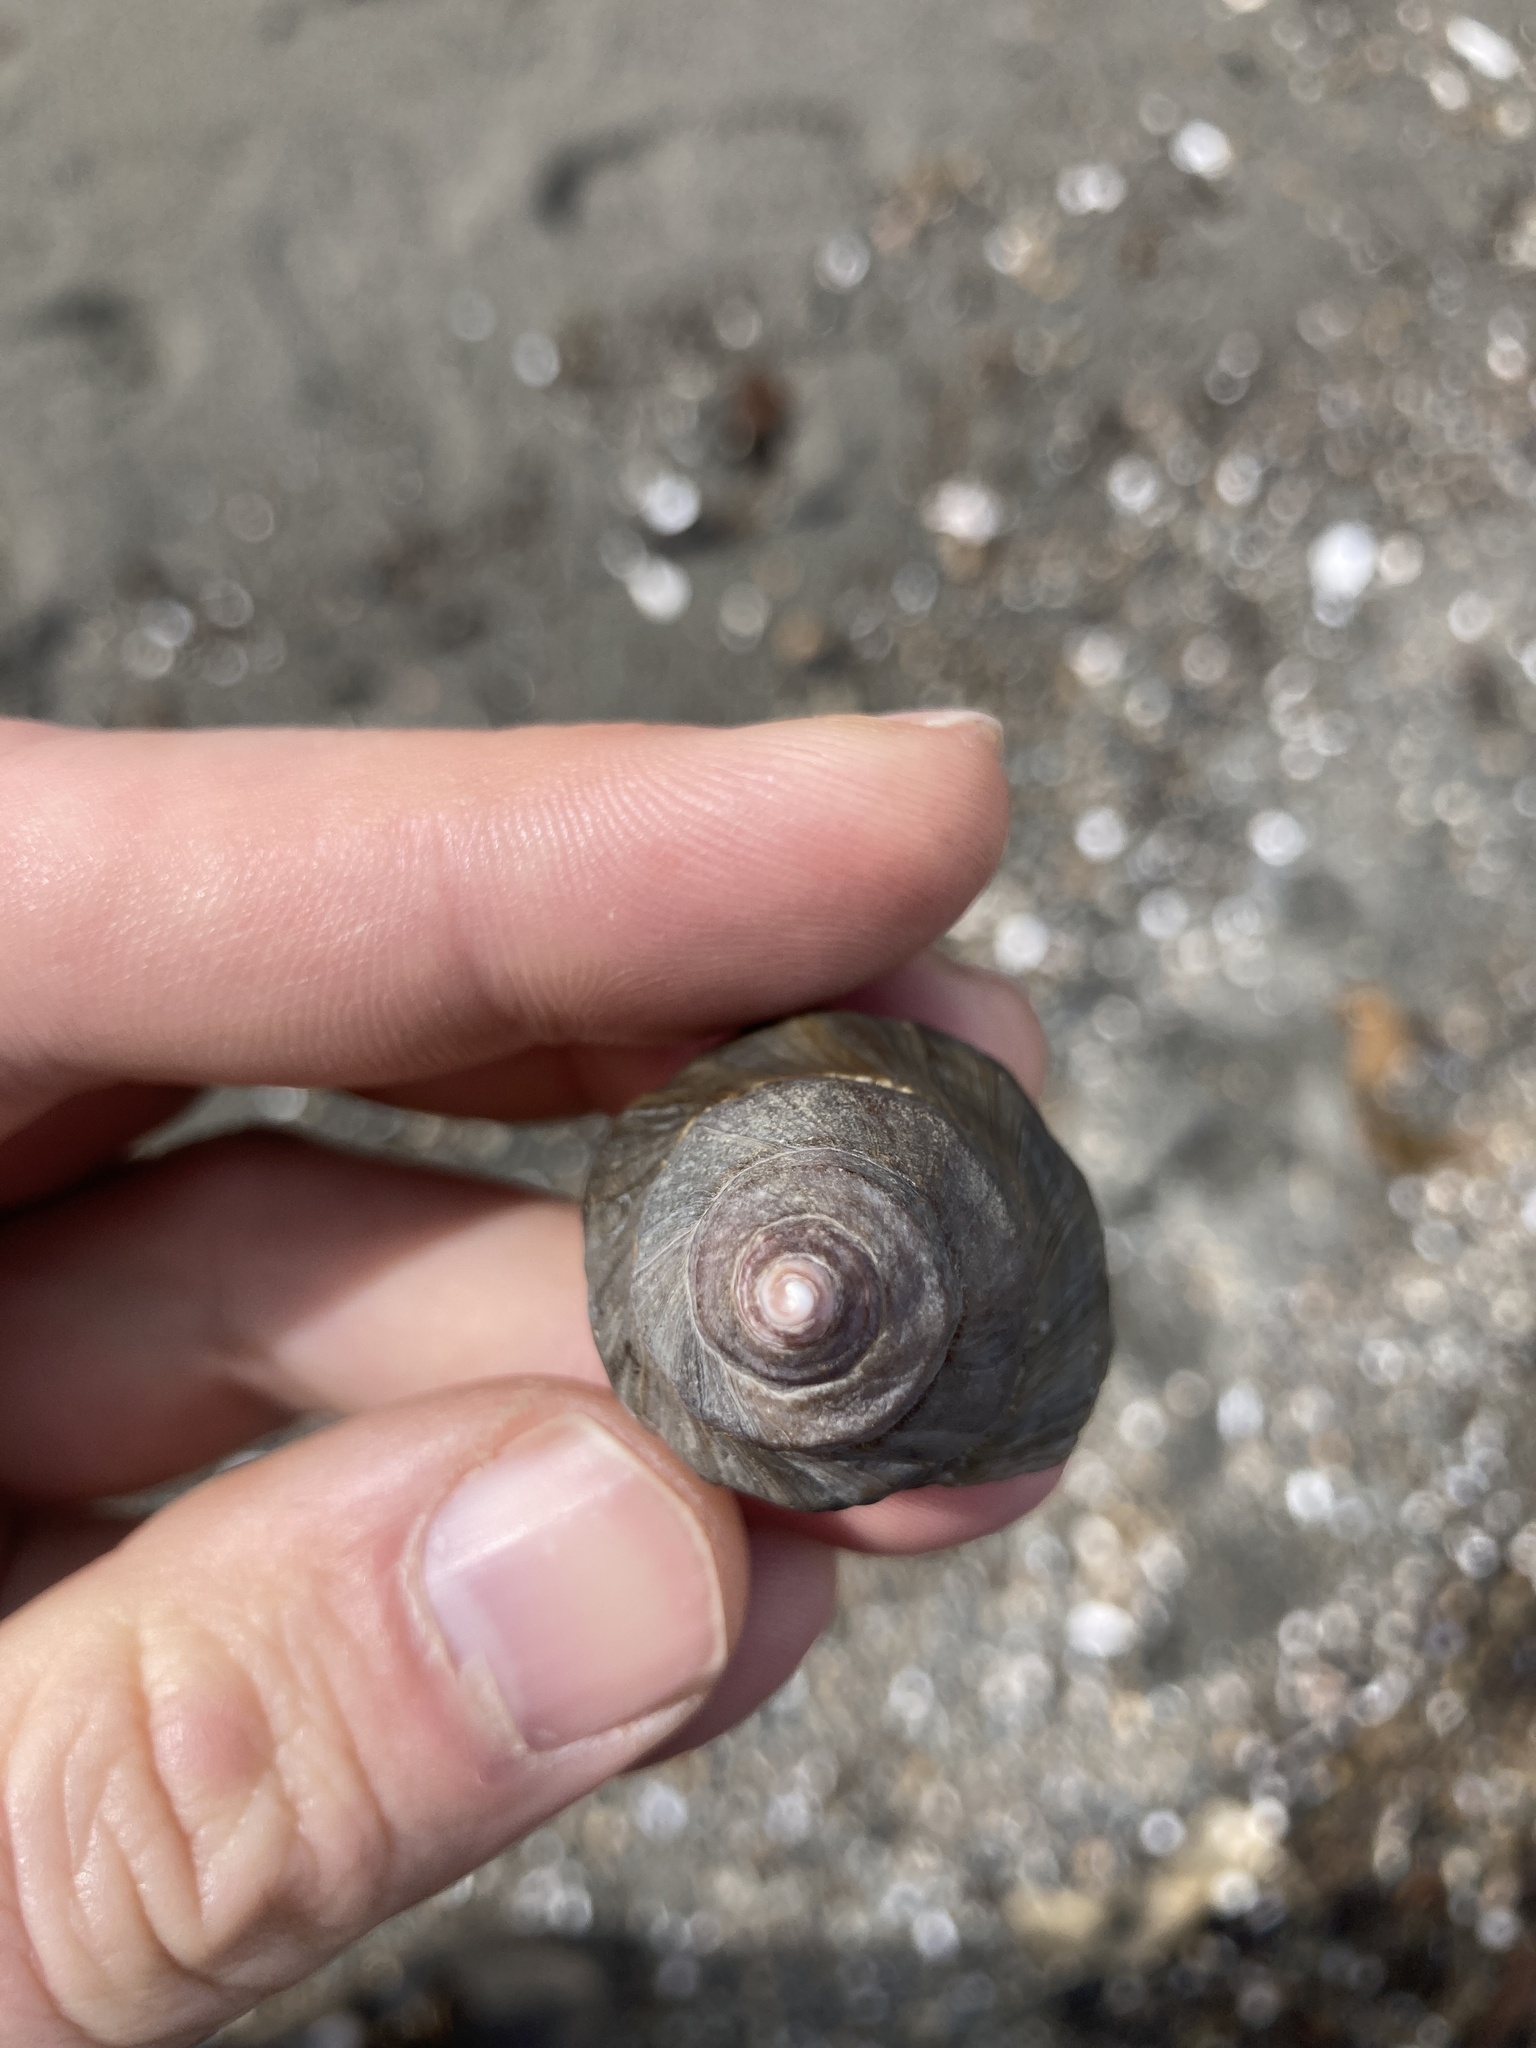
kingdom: Animalia
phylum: Mollusca
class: Gastropoda
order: Neogastropoda
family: Muricidae
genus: Nucella
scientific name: Nucella lamellosa
